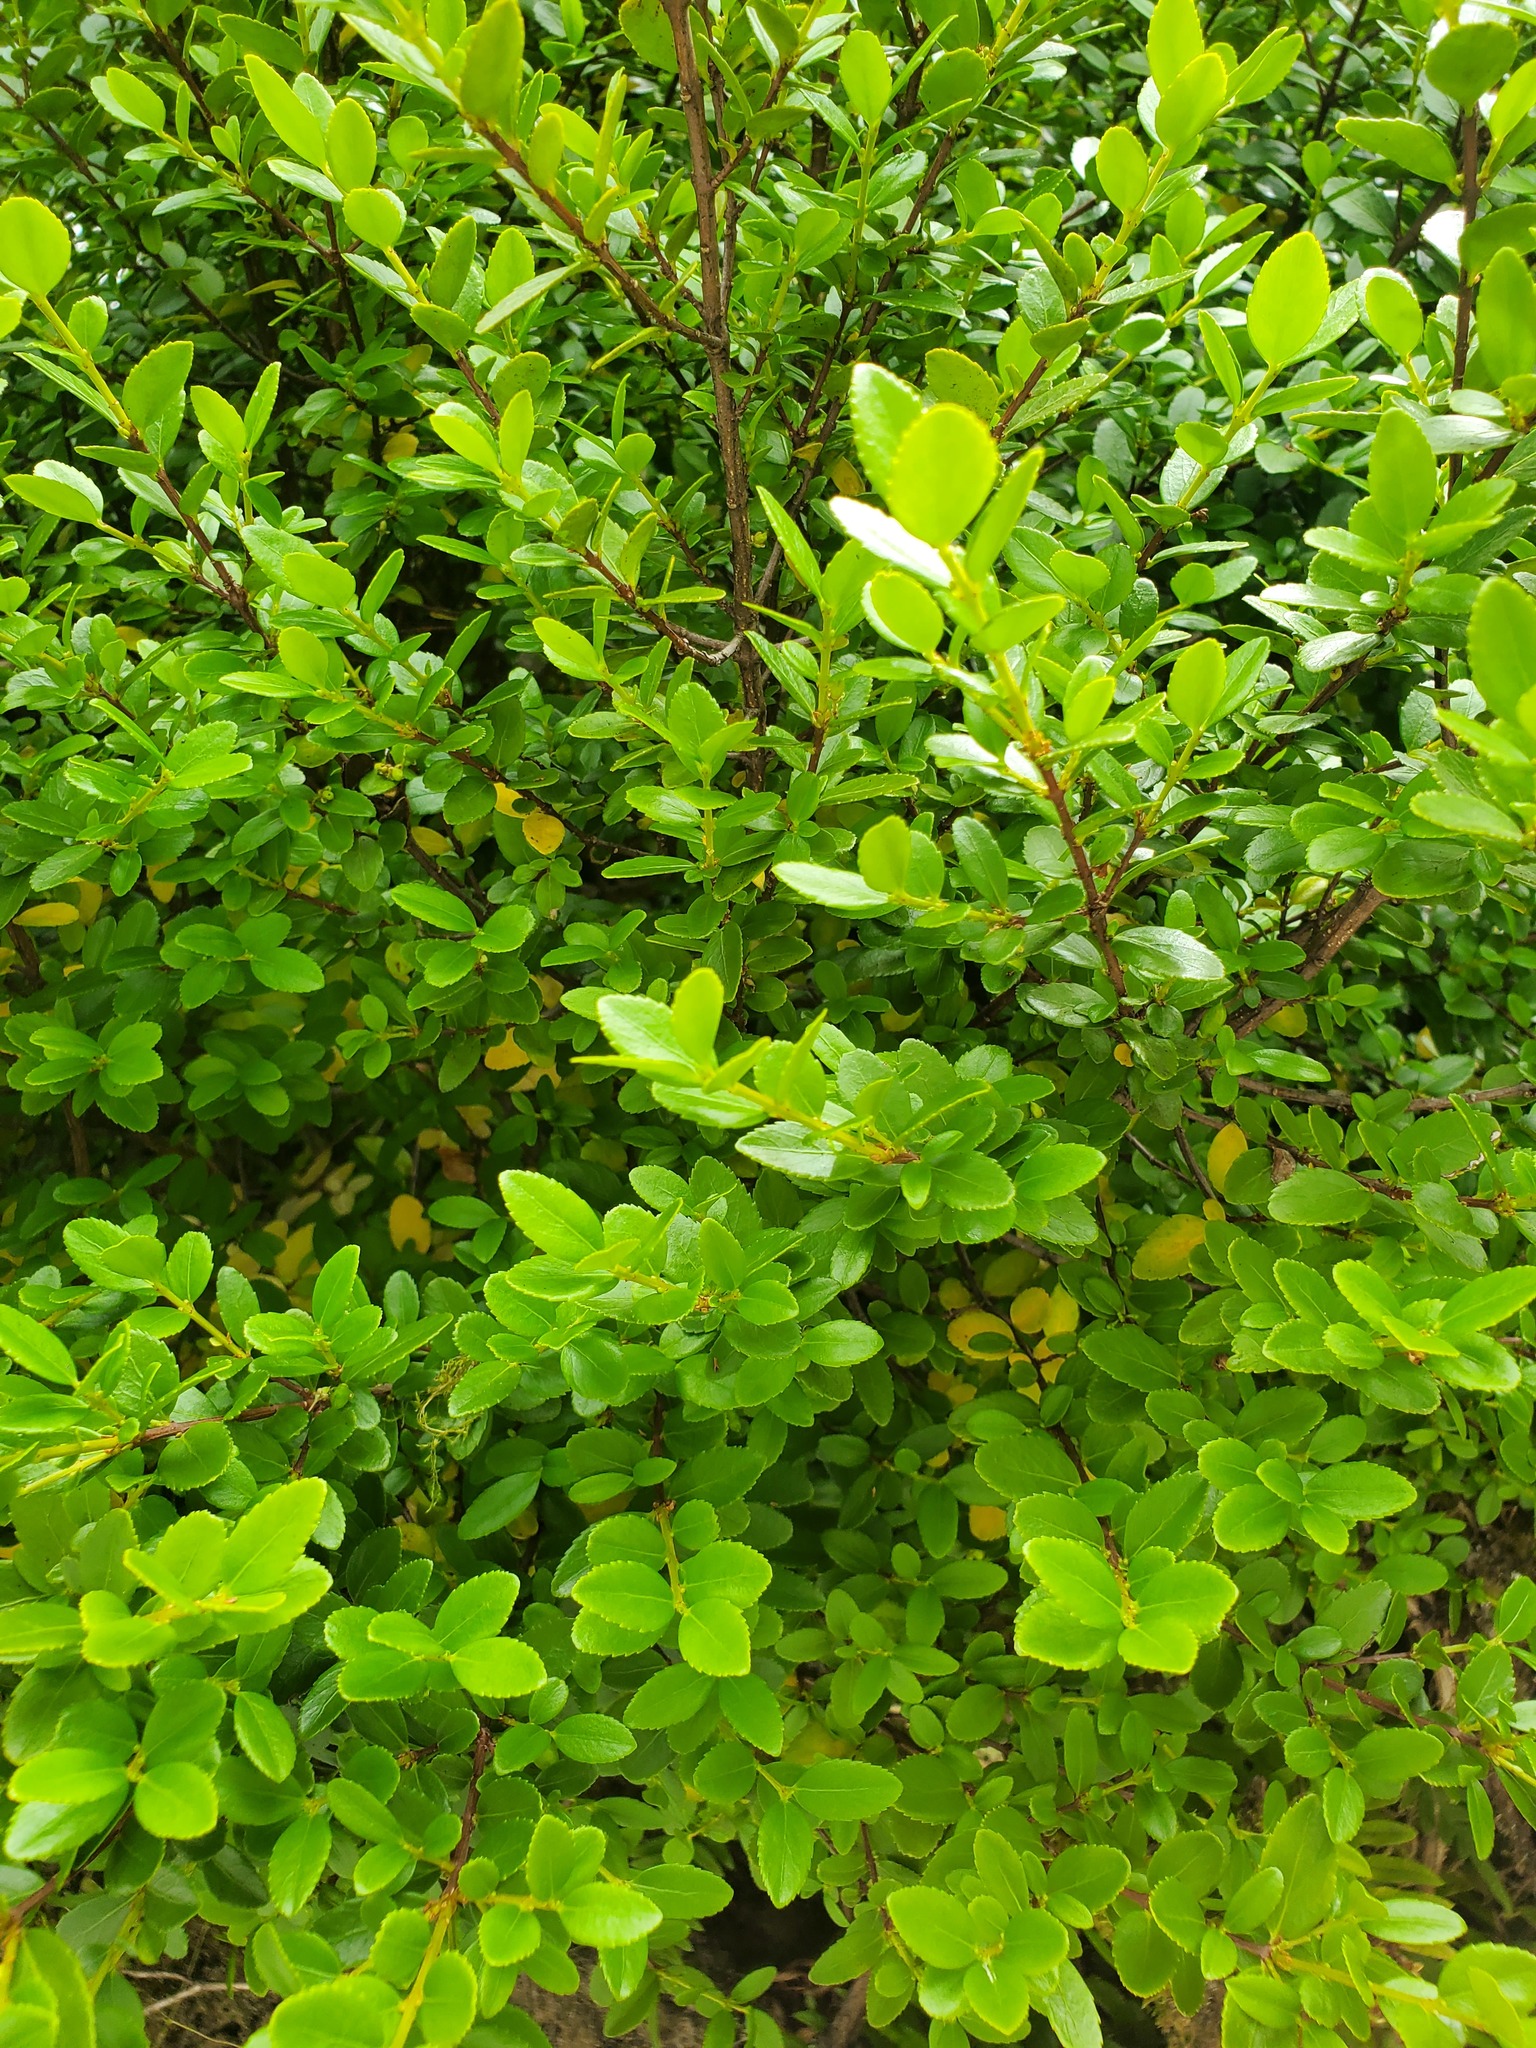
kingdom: Plantae
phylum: Tracheophyta
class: Magnoliopsida
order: Celastrales
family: Celastraceae
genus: Paxistima
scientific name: Paxistima myrsinites
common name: Mountain-lover
